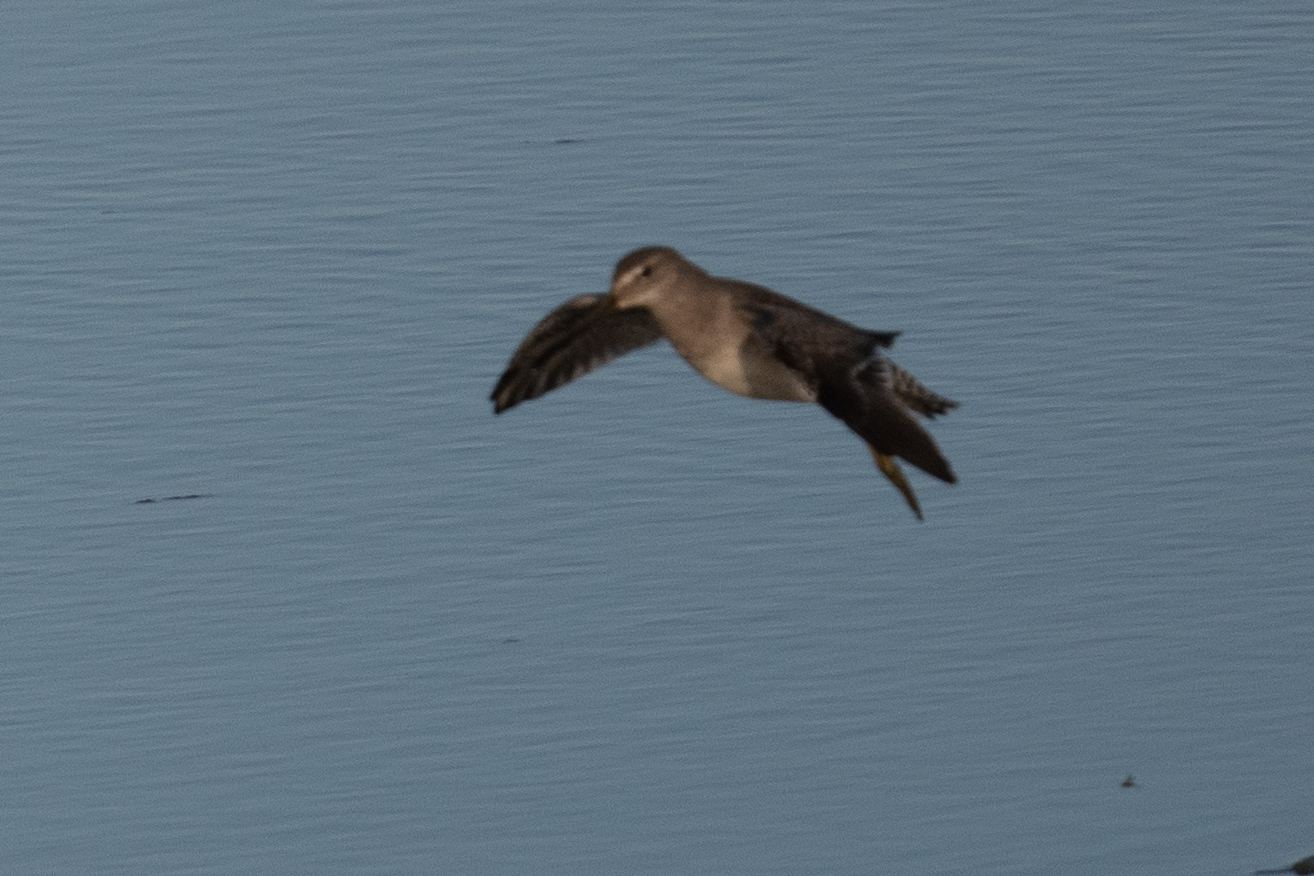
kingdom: Animalia
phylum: Chordata
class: Aves
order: Charadriiformes
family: Scolopacidae
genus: Limnodromus
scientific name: Limnodromus scolopaceus
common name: Long-billed dowitcher
